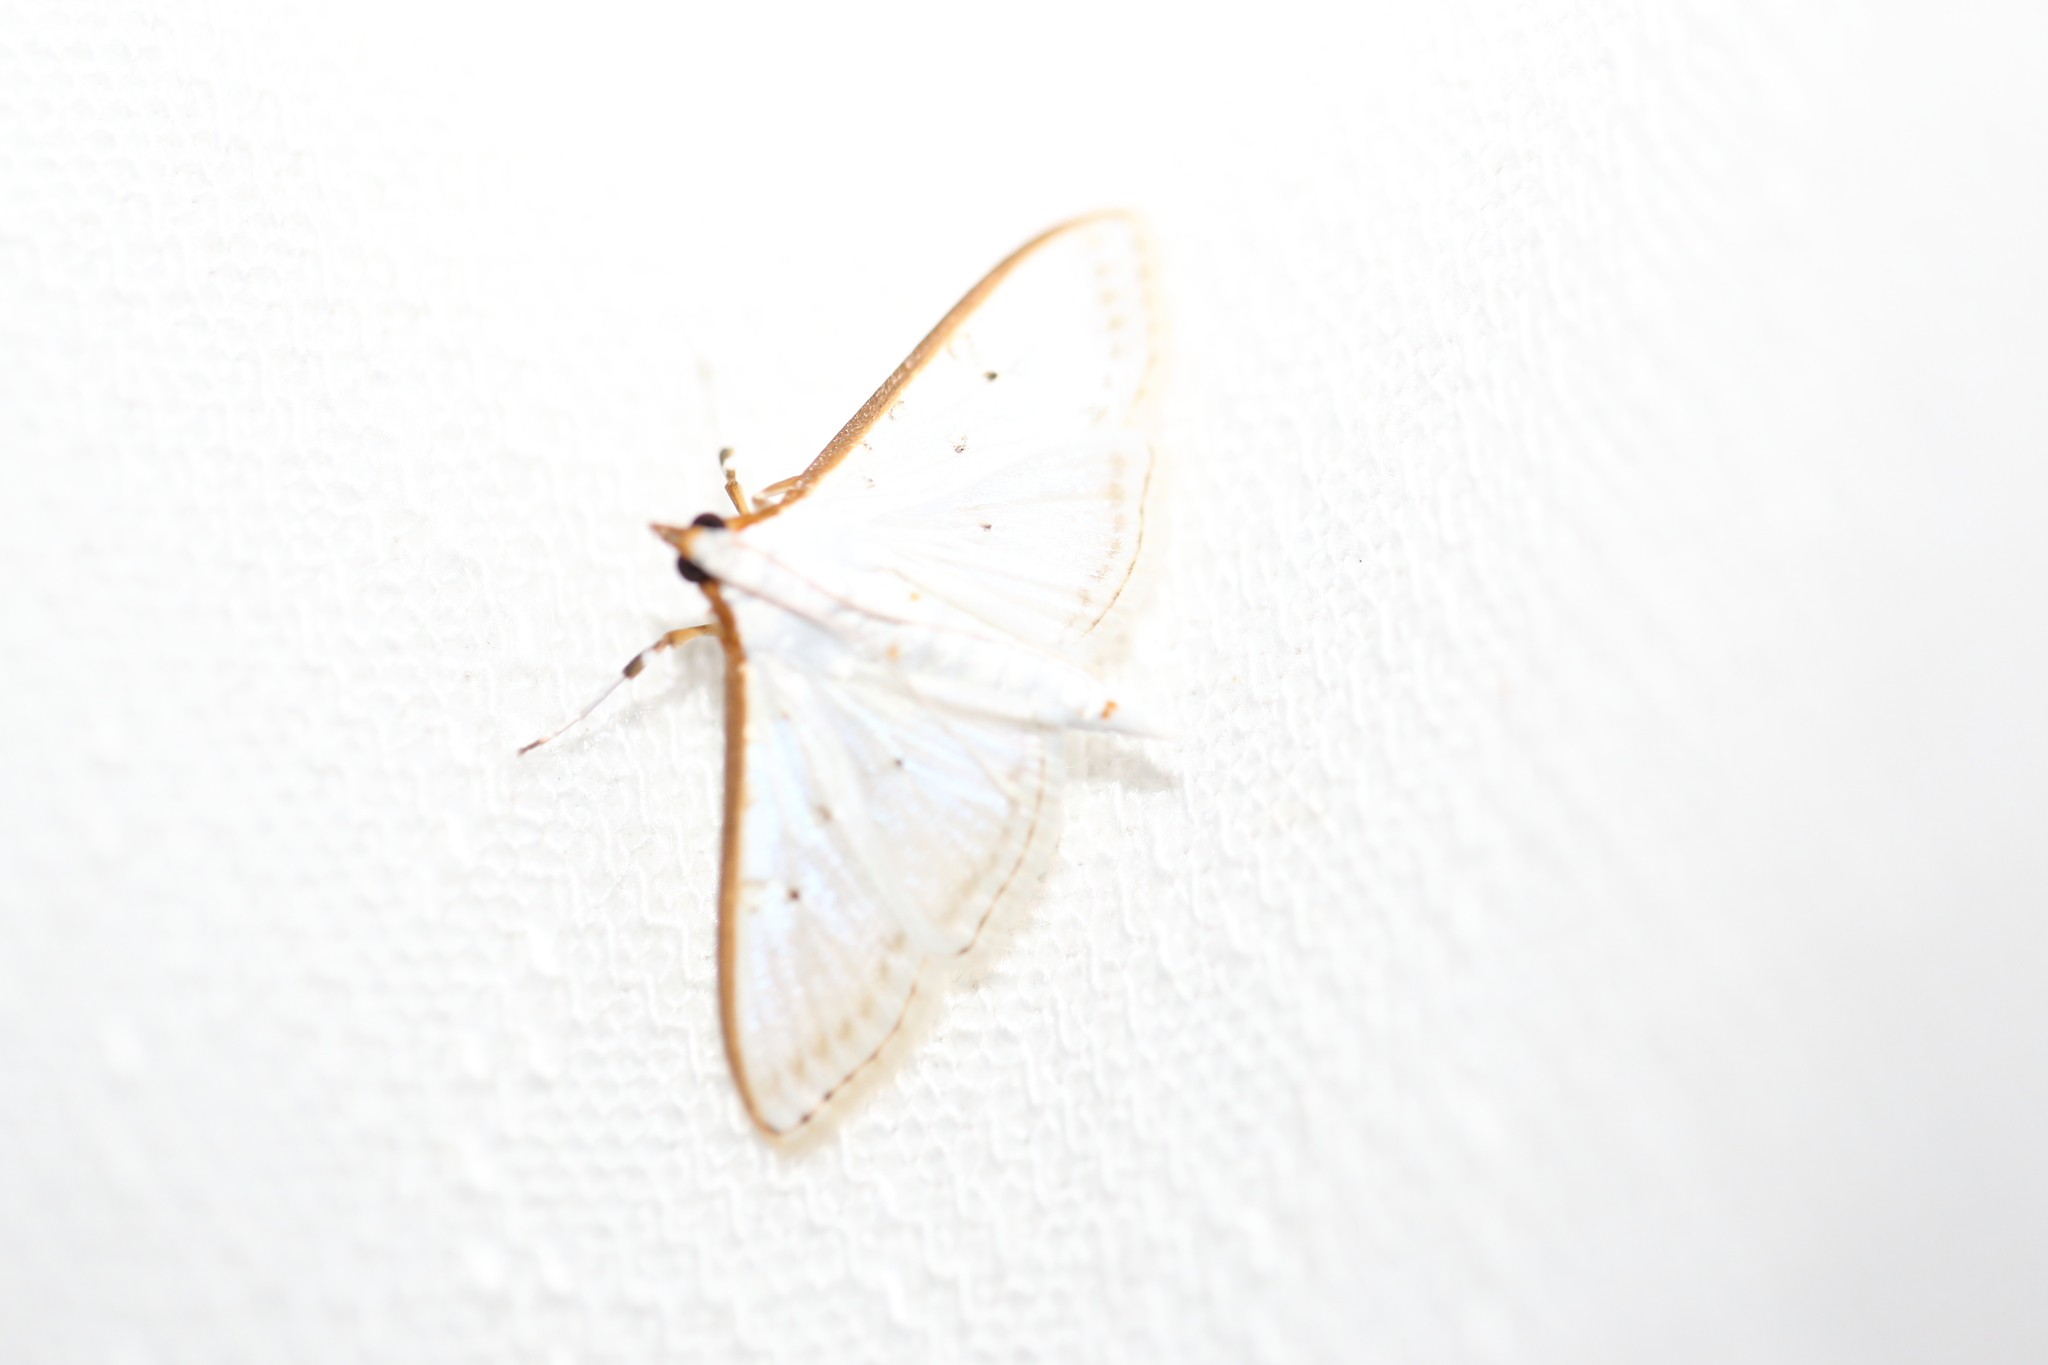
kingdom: Animalia
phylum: Arthropoda
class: Insecta
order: Lepidoptera
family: Crambidae
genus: Palpita
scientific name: Palpita pratti
